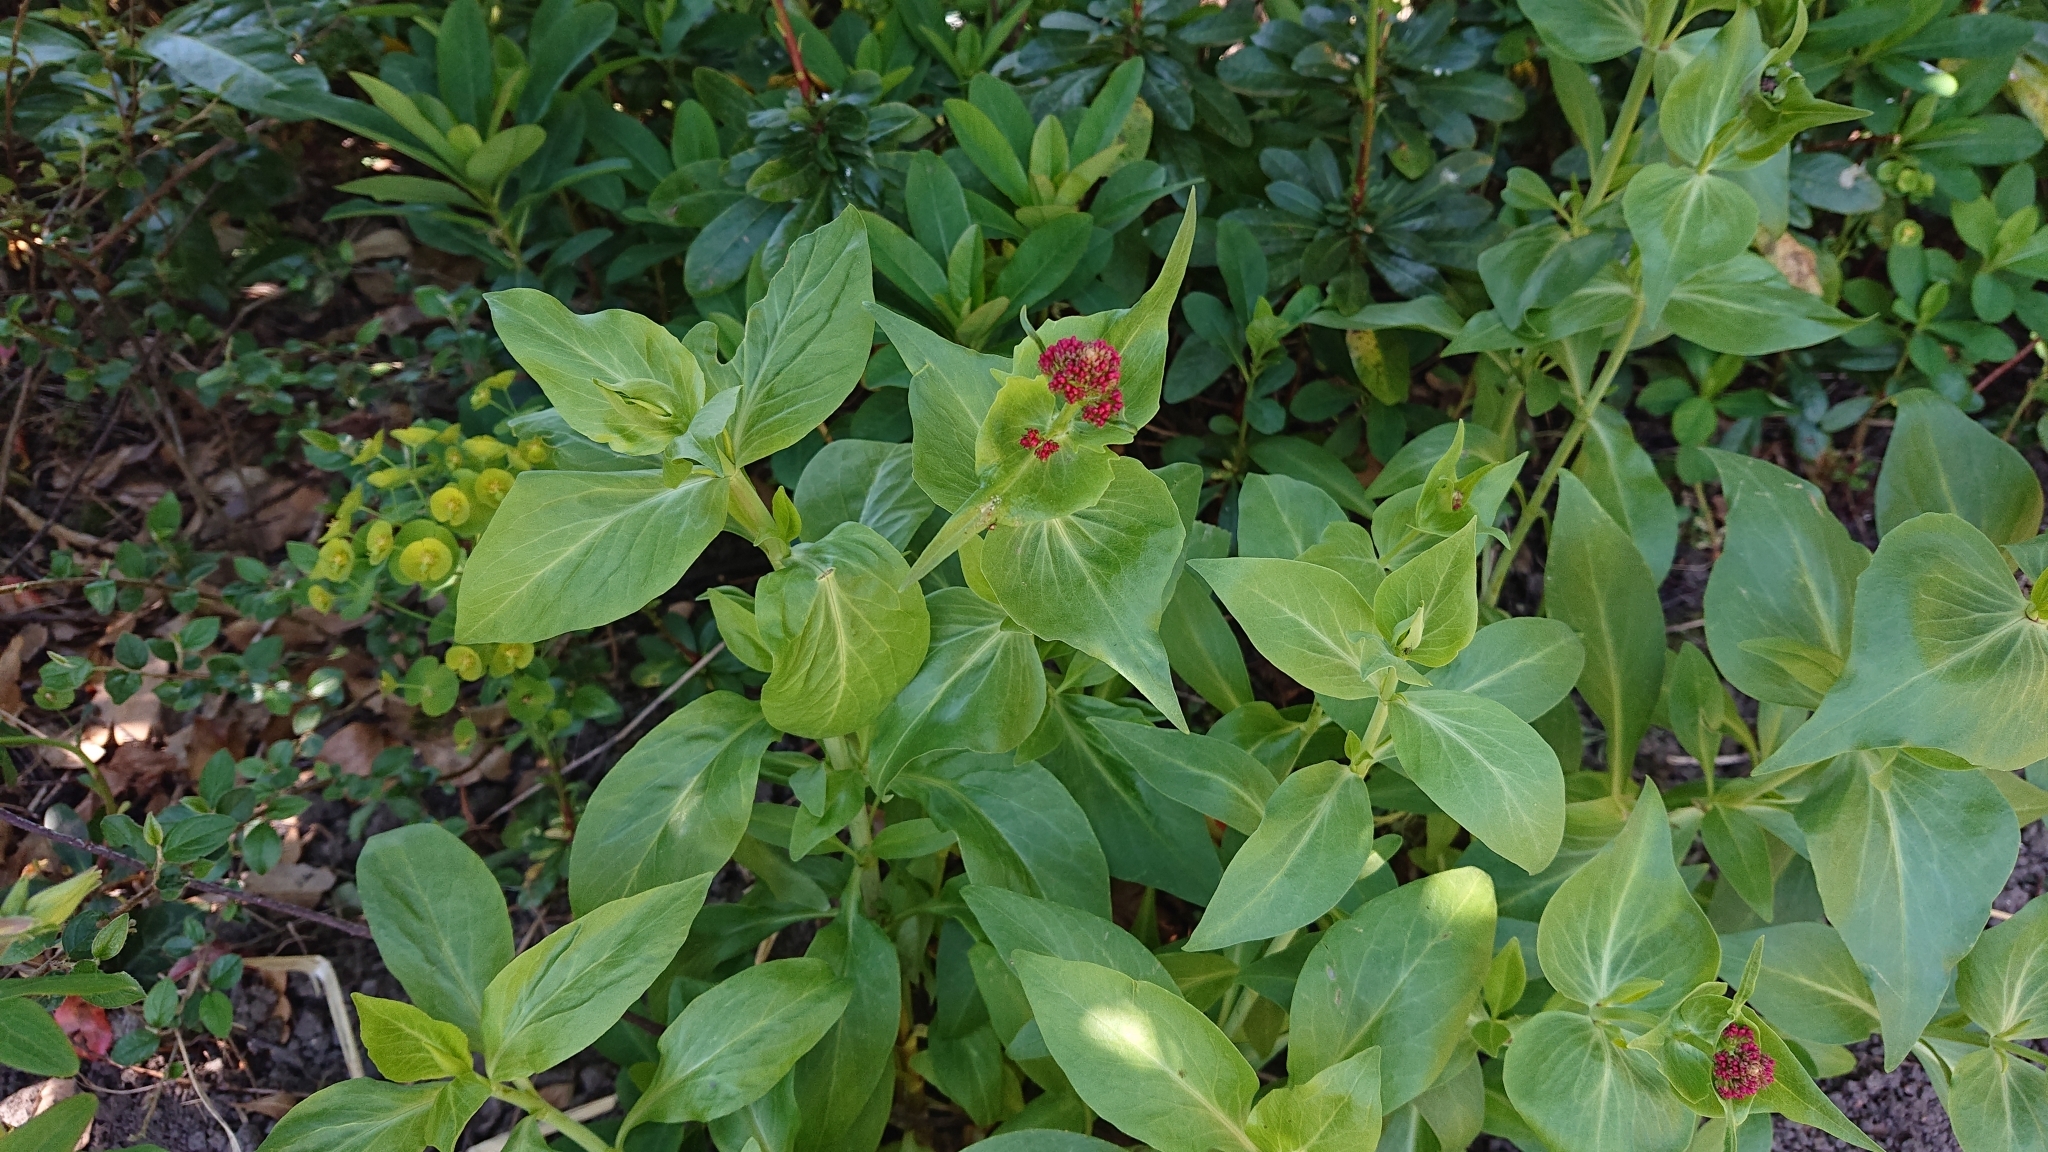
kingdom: Plantae
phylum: Tracheophyta
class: Magnoliopsida
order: Dipsacales
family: Caprifoliaceae
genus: Centranthus
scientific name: Centranthus ruber
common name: Red valerian
